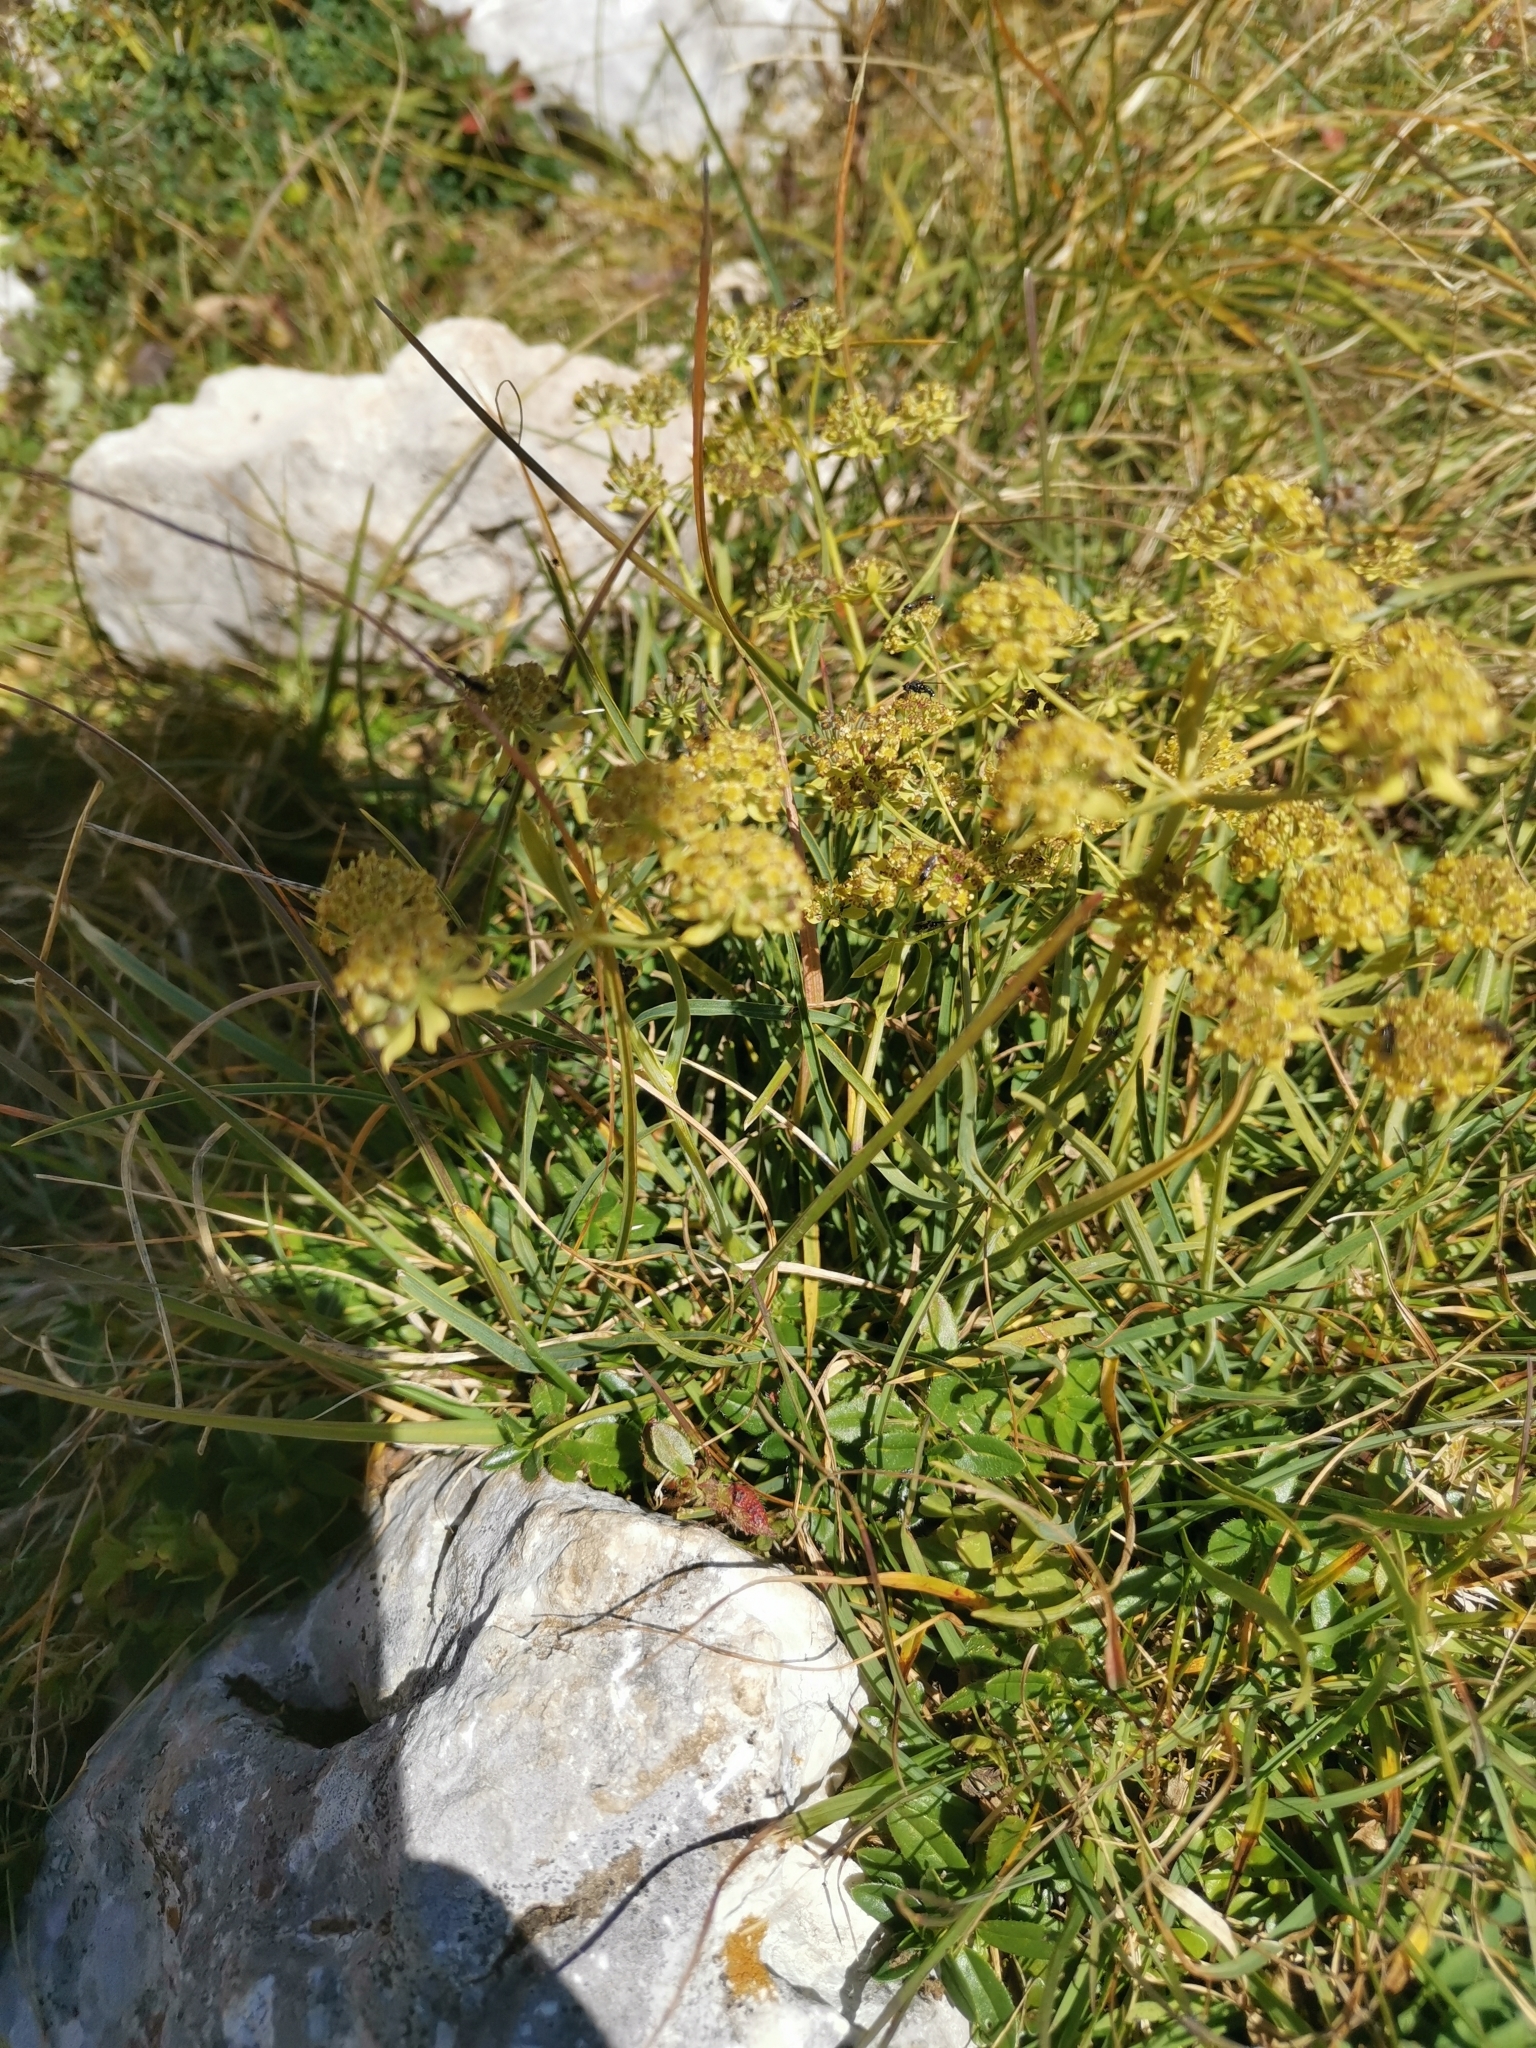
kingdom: Plantae
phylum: Tracheophyta
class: Magnoliopsida
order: Apiales
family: Apiaceae
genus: Bupleurum
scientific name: Bupleurum petraeum
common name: Rock hare's-ear
